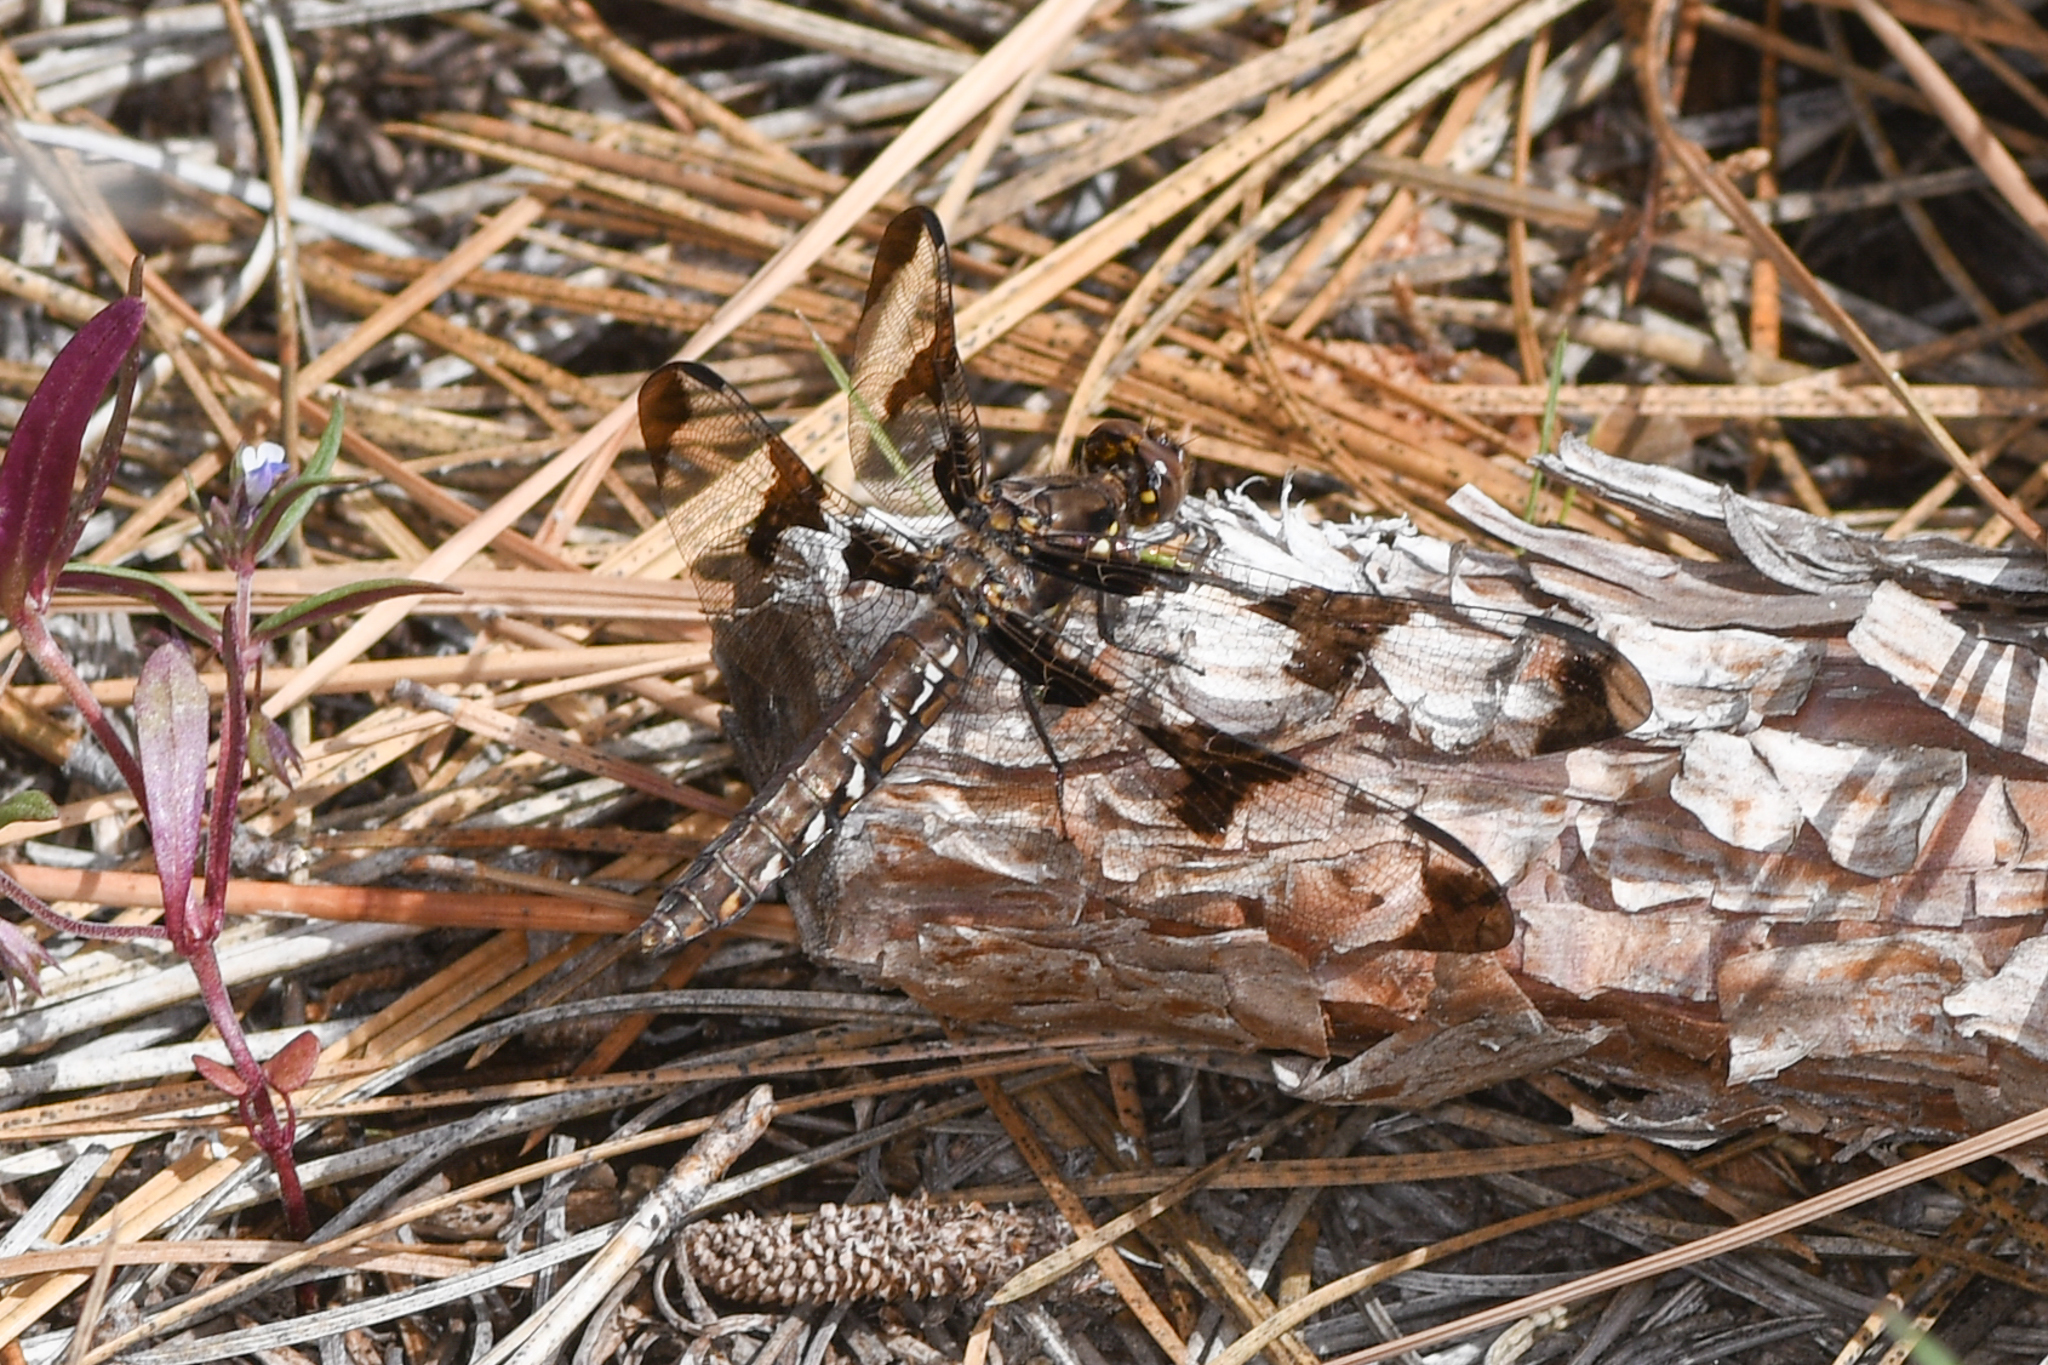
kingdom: Animalia
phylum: Arthropoda
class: Insecta
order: Odonata
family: Libellulidae
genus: Plathemis
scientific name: Plathemis lydia
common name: Common whitetail
